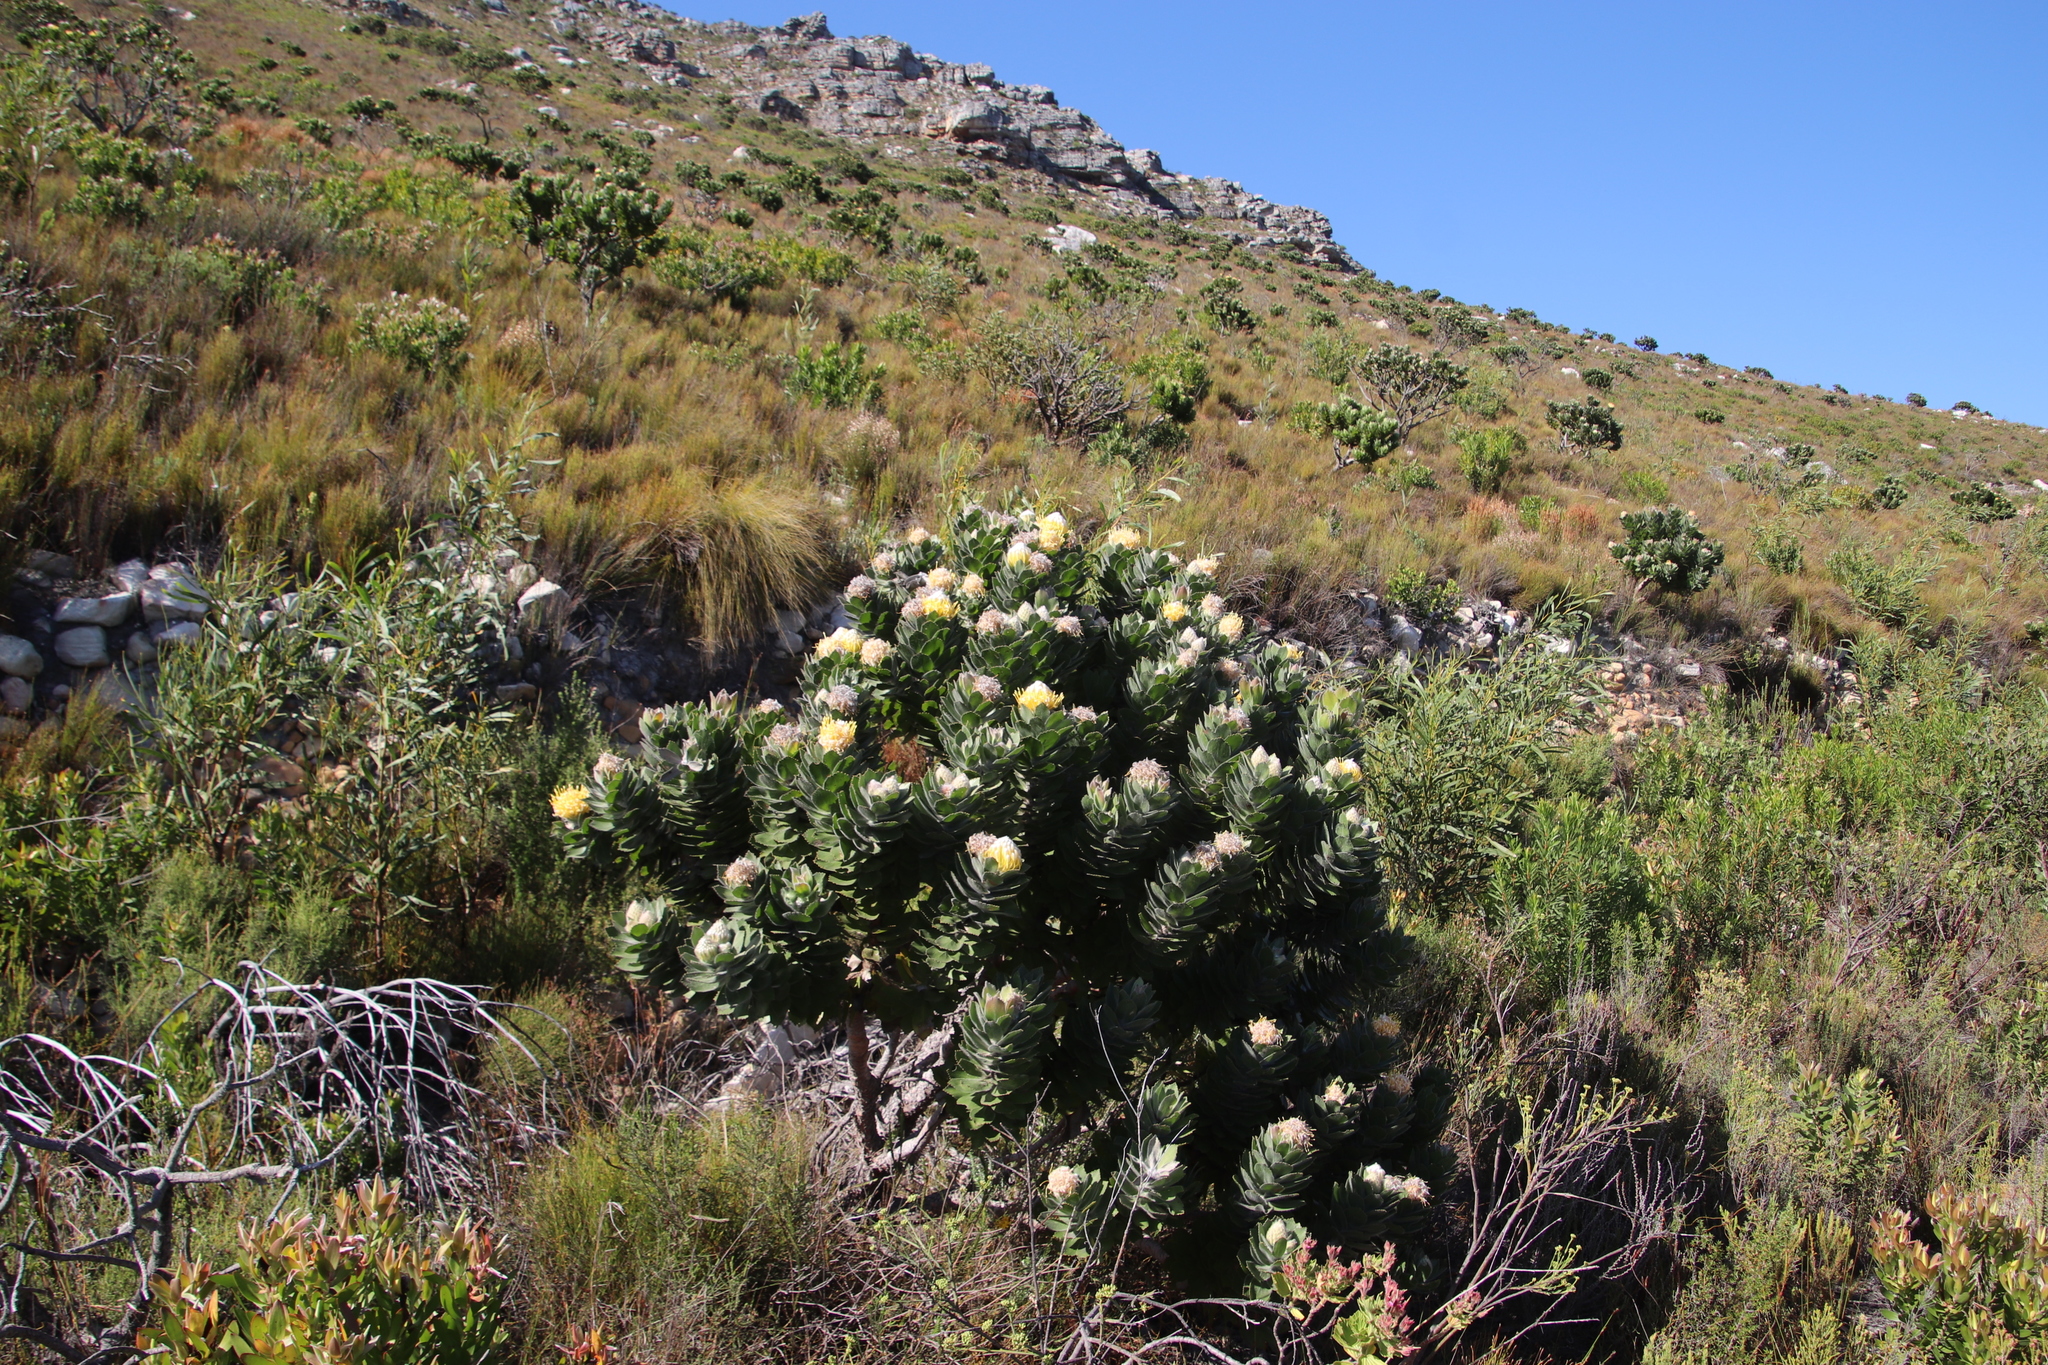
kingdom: Plantae
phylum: Tracheophyta
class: Magnoliopsida
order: Proteales
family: Proteaceae
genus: Leucospermum
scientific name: Leucospermum conocarpodendron
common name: Tree pincushion
